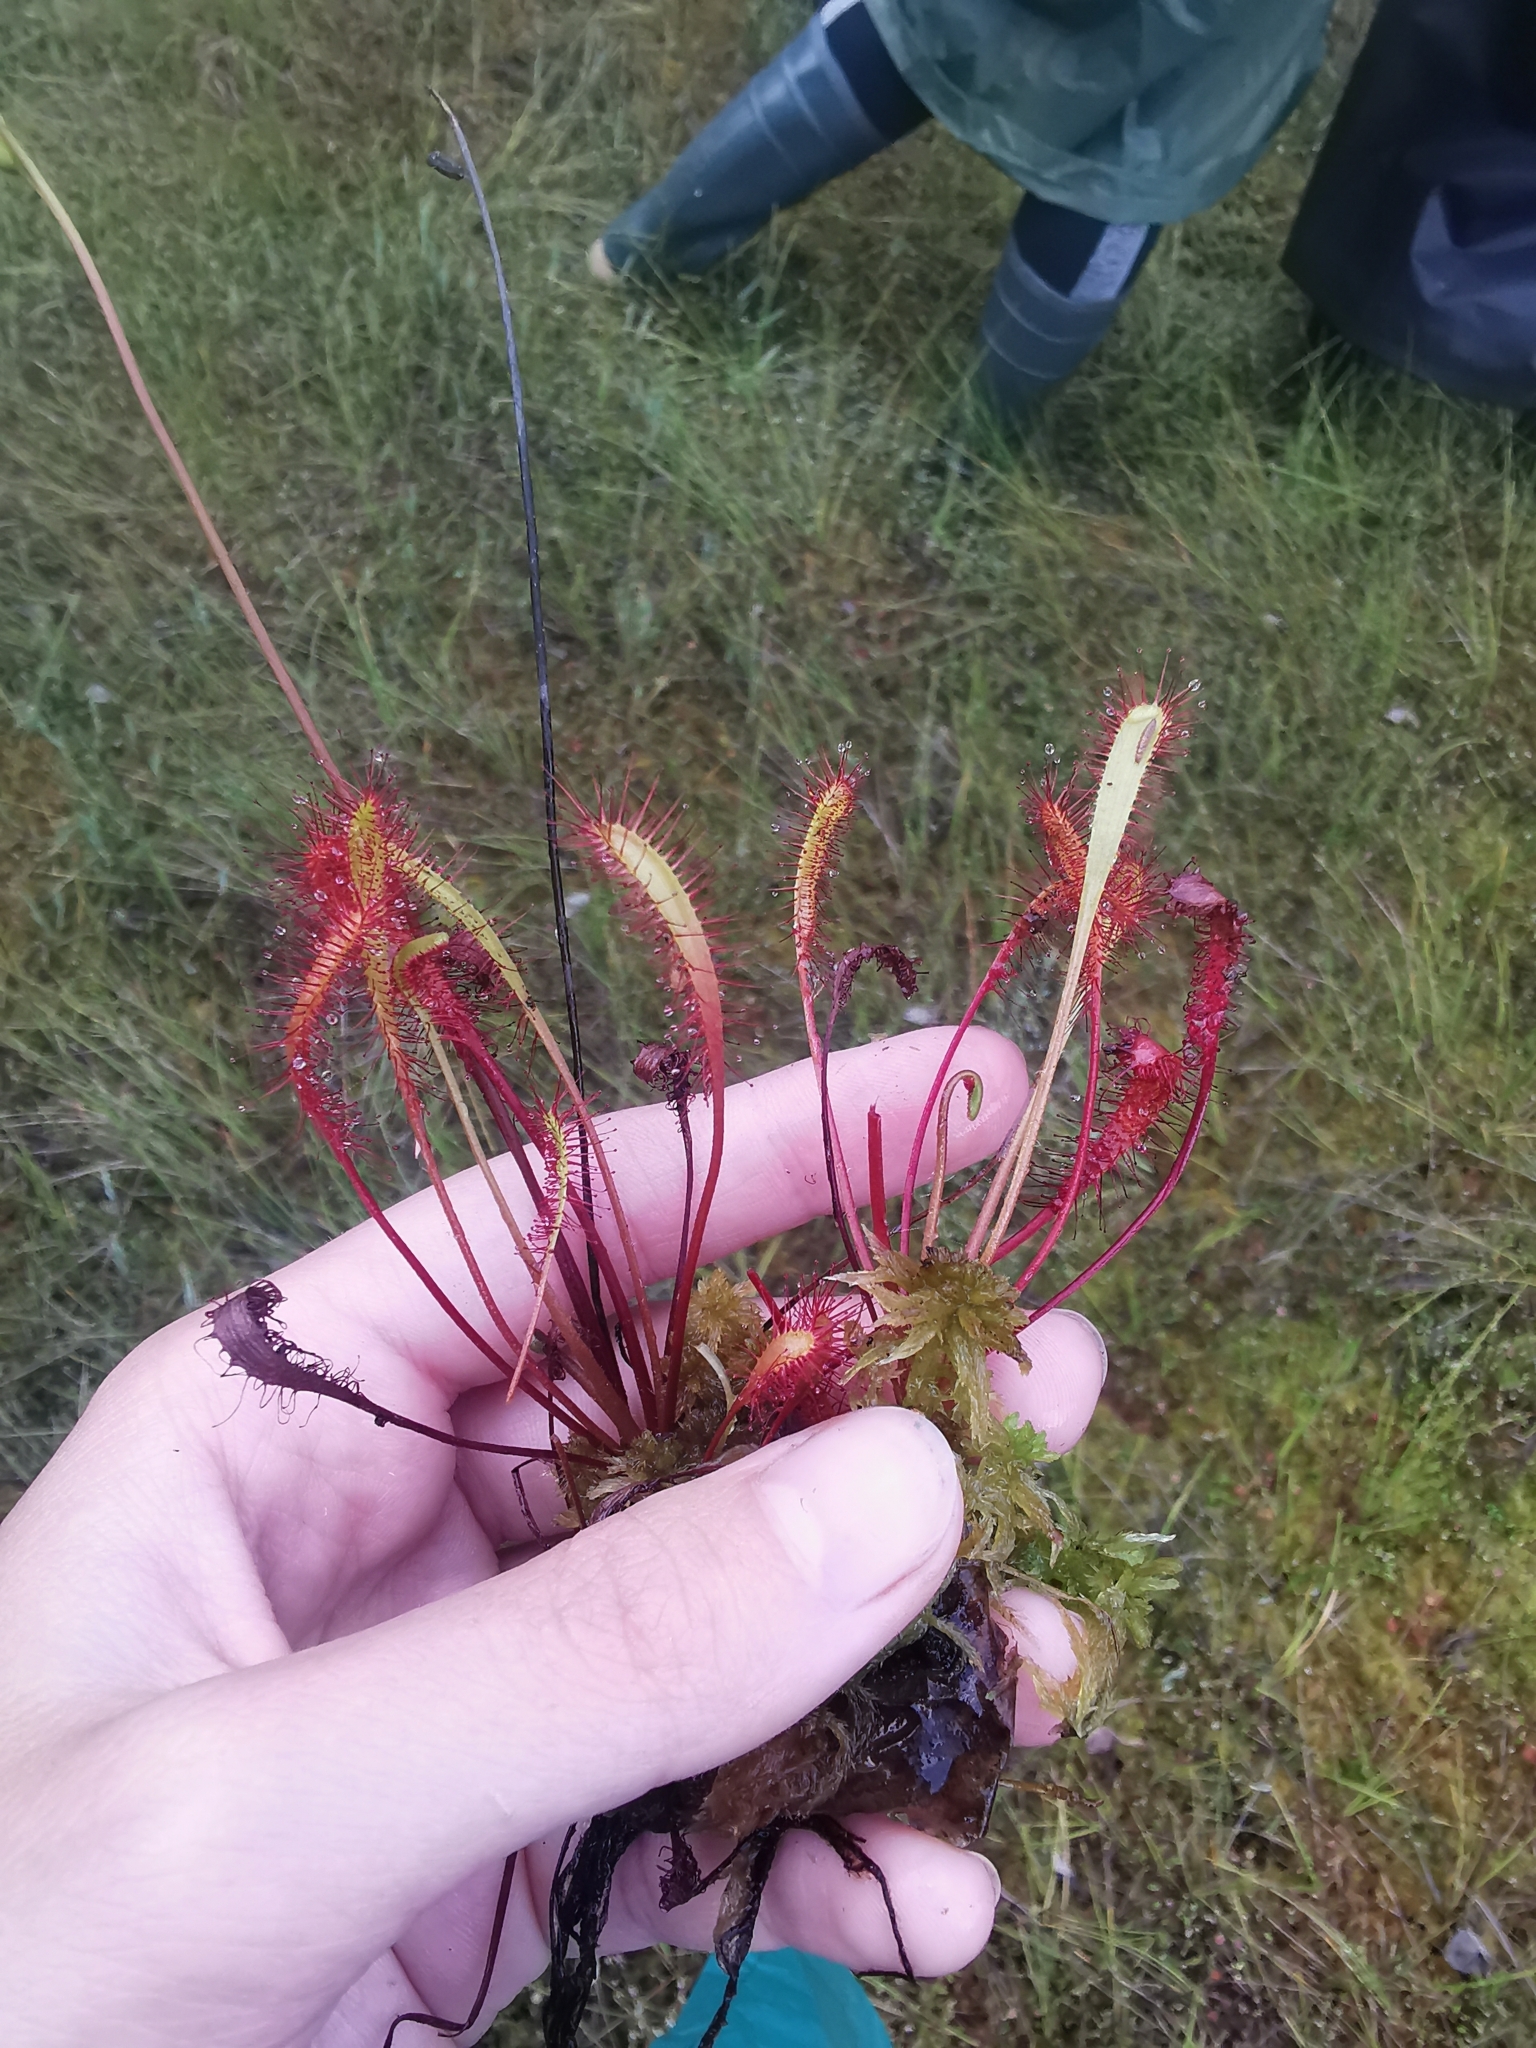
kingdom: Plantae
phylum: Tracheophyta
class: Magnoliopsida
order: Caryophyllales
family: Droseraceae
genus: Drosera
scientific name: Drosera anglica
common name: Great sundew
